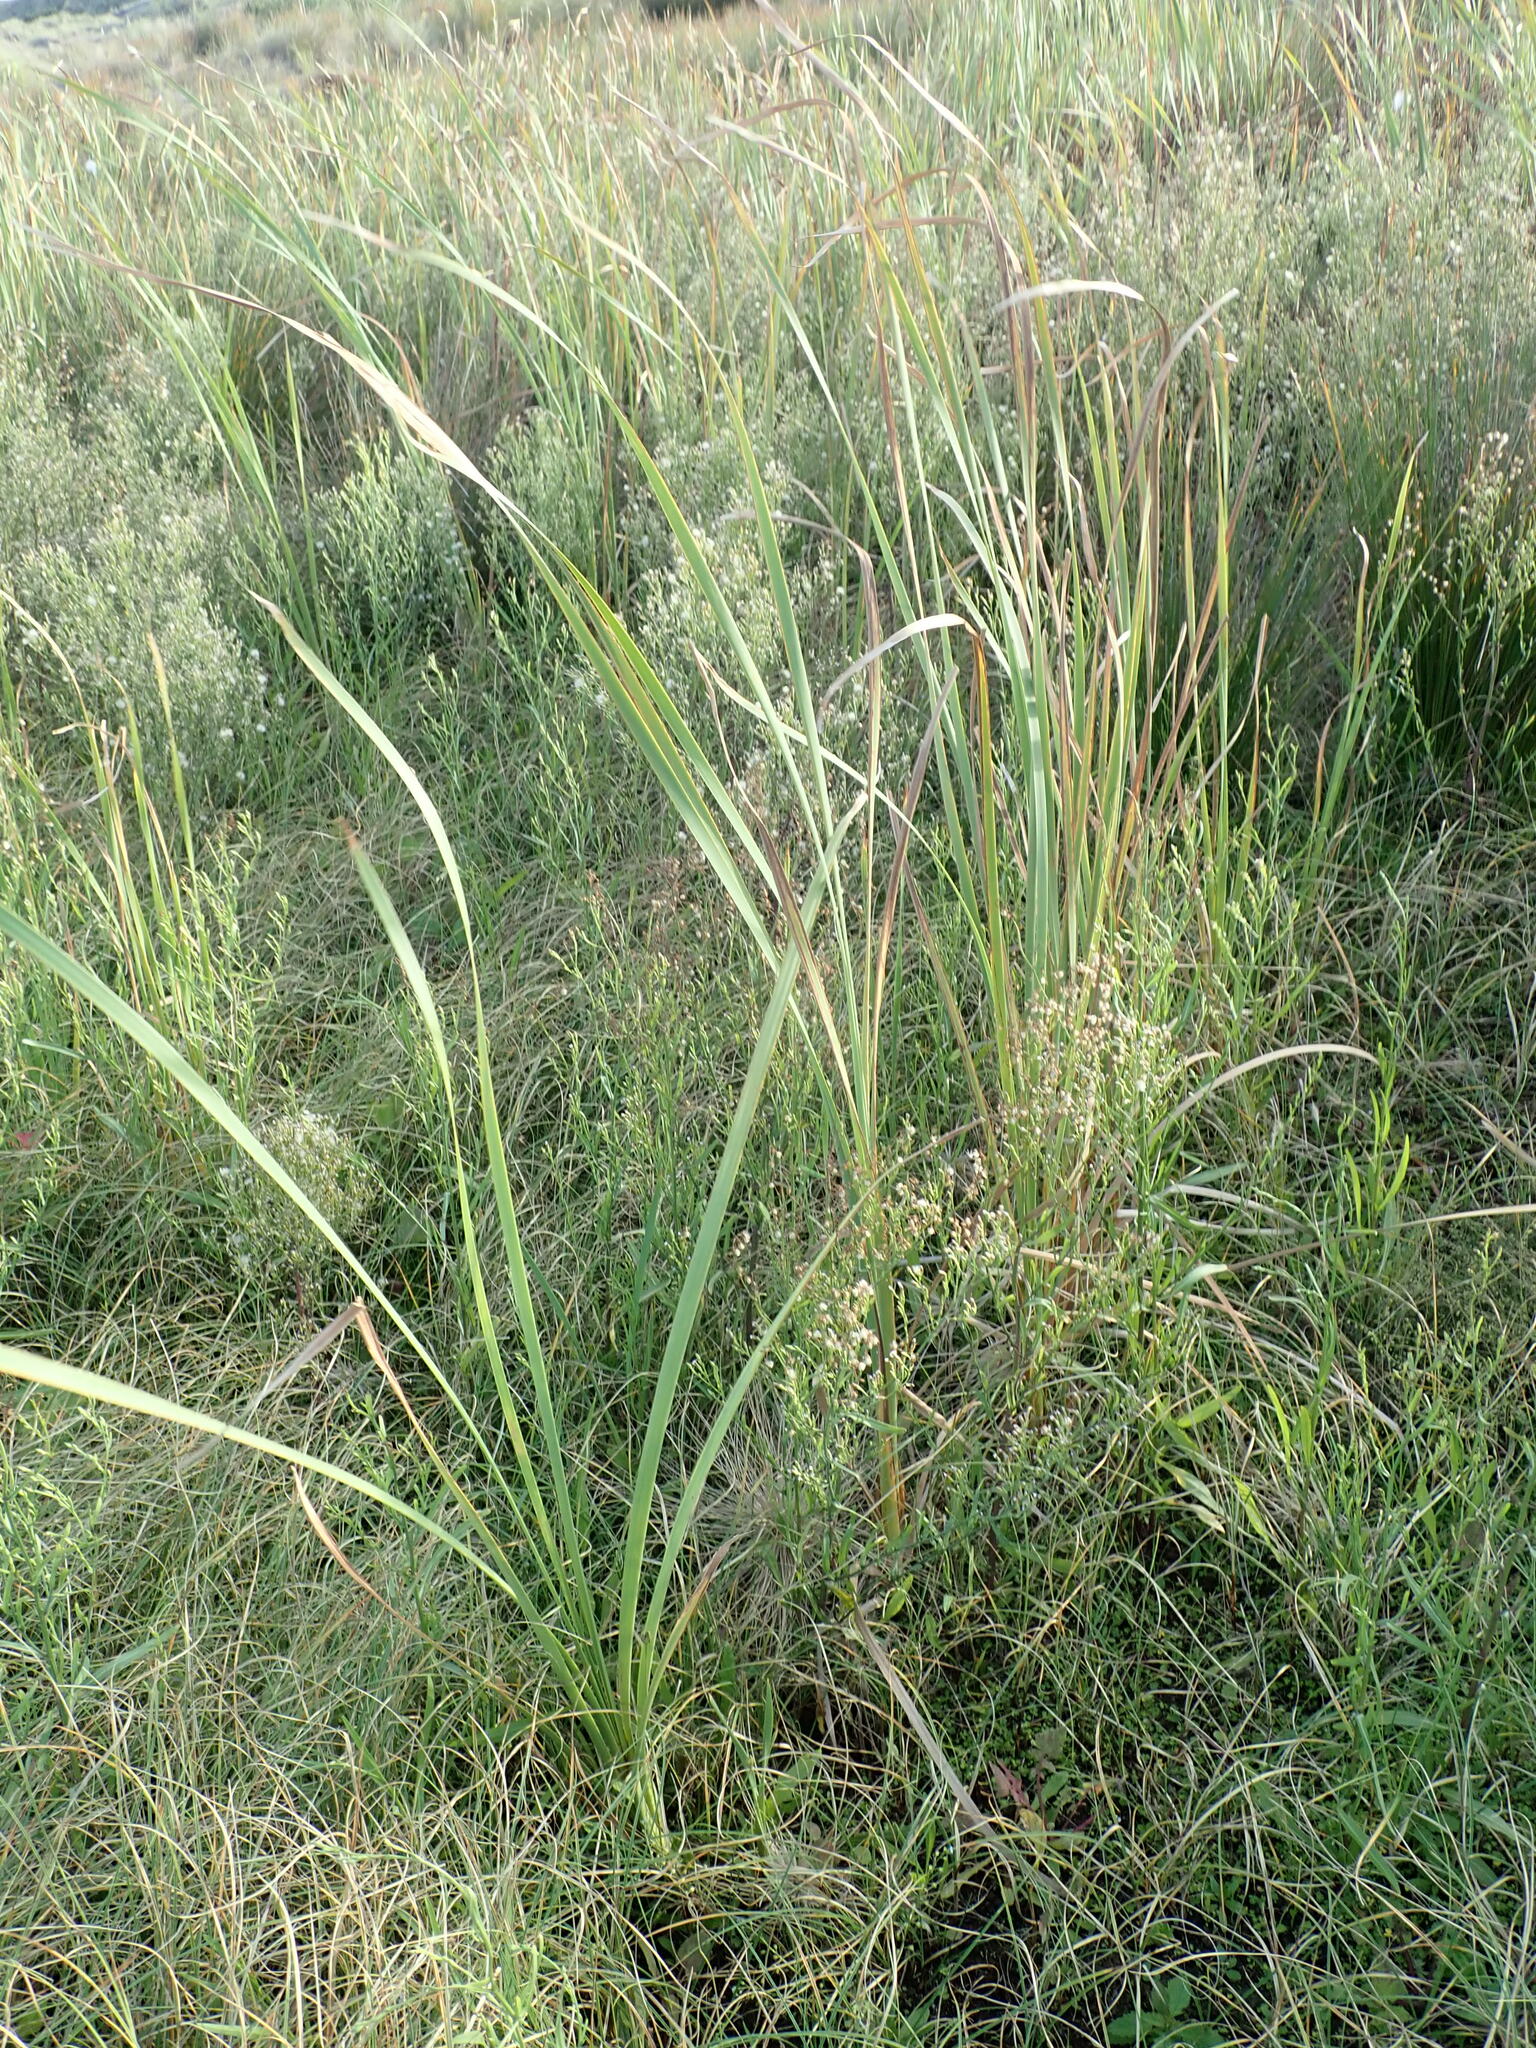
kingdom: Plantae
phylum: Tracheophyta
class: Liliopsida
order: Poales
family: Typhaceae
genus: Typha
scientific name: Typha orientalis
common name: Bullrush
